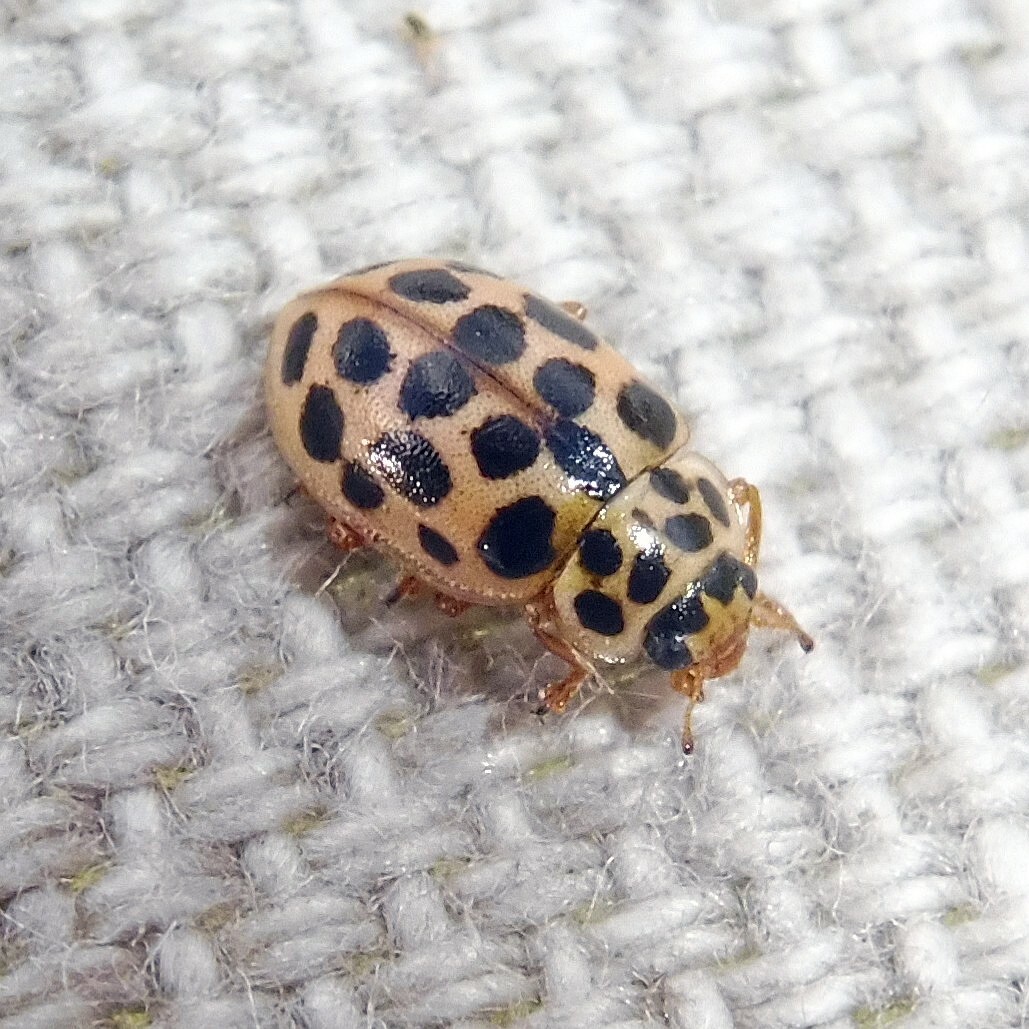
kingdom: Animalia
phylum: Arthropoda
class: Insecta
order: Coleoptera
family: Coccinellidae
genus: Anisosticta
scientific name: Anisosticta novemdecimpunctata
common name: Water ladybird
